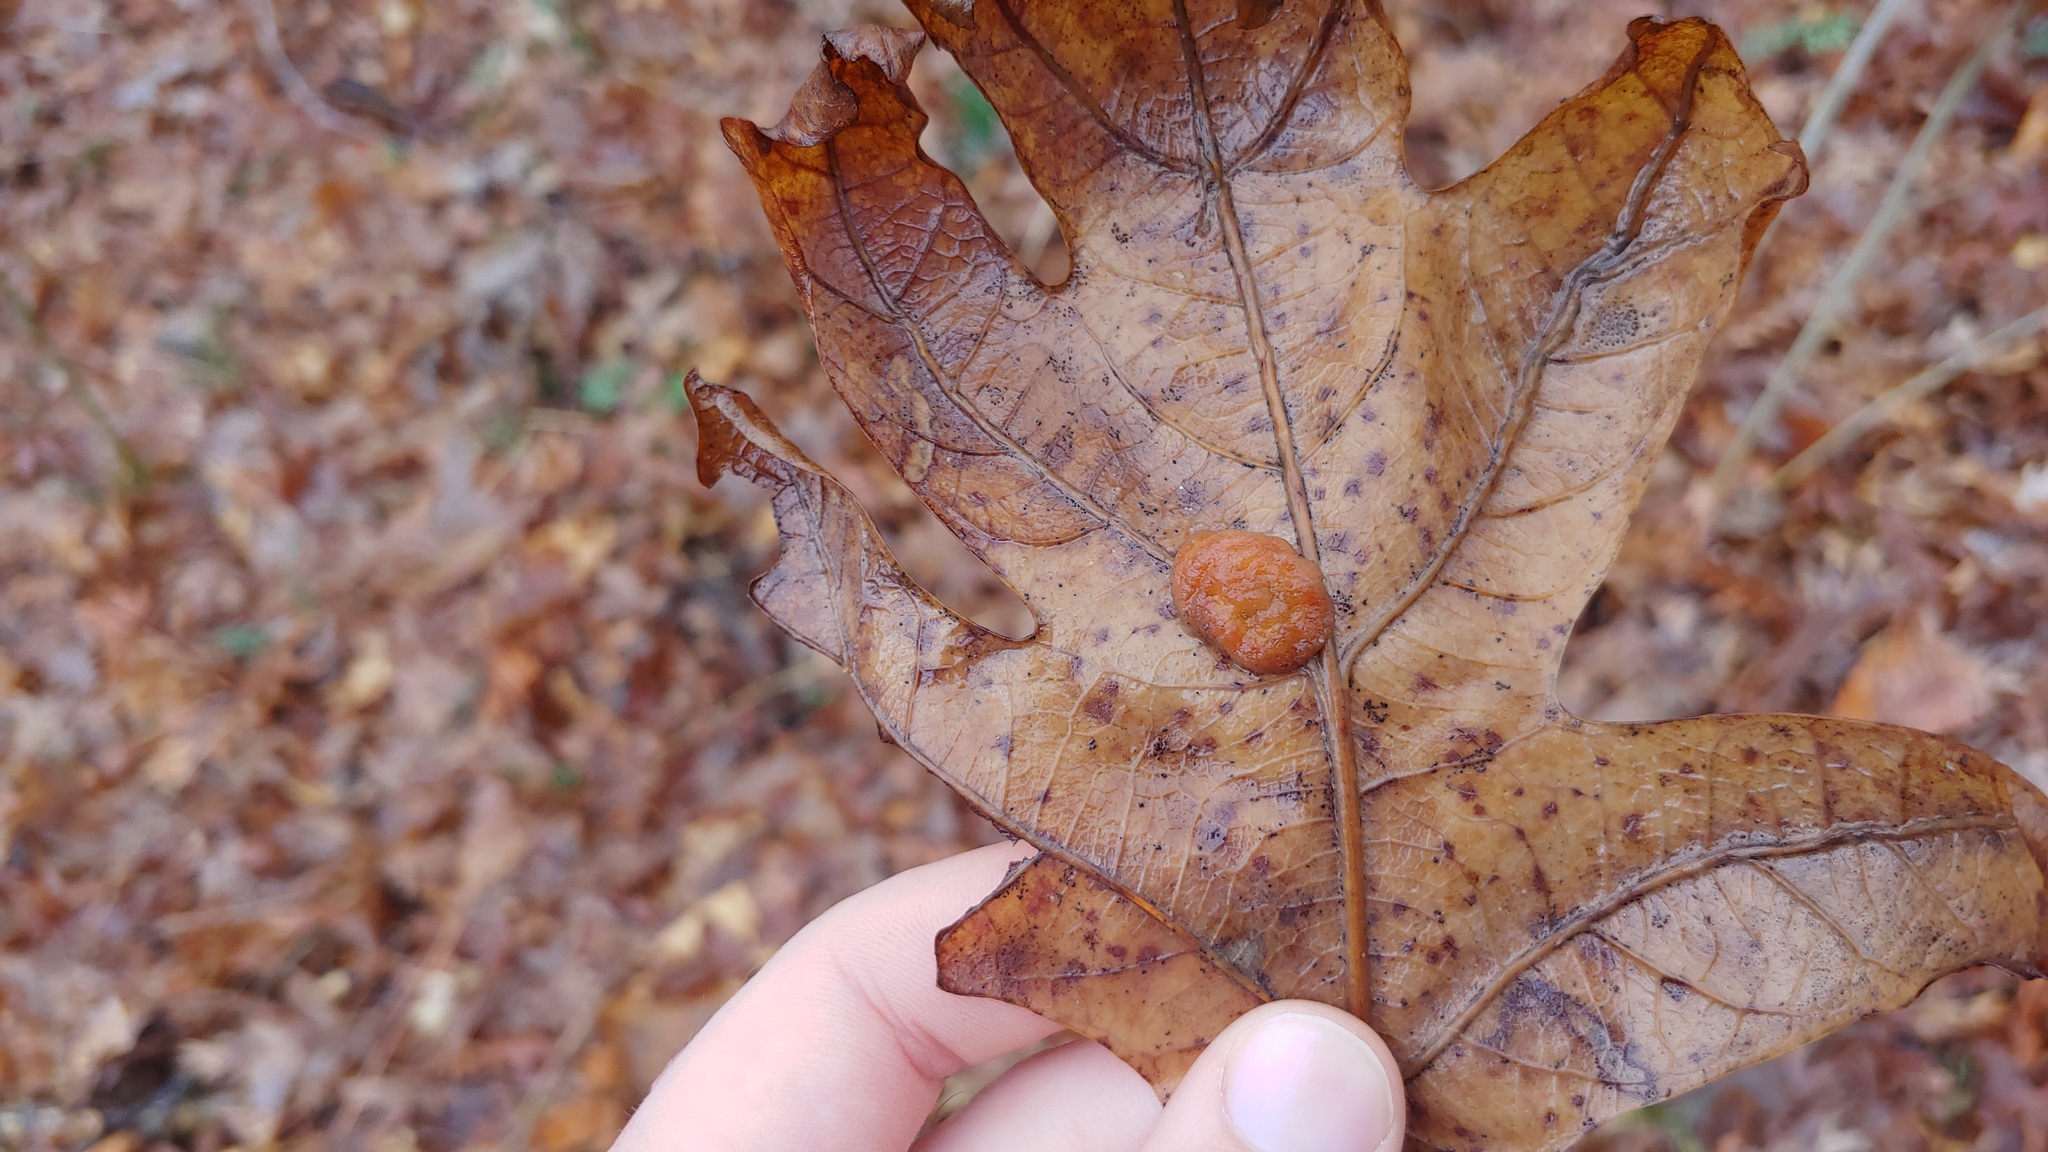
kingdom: Animalia
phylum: Arthropoda
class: Insecta
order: Hymenoptera
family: Cynipidae
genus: Andricus
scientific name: Andricus quercusflocci
